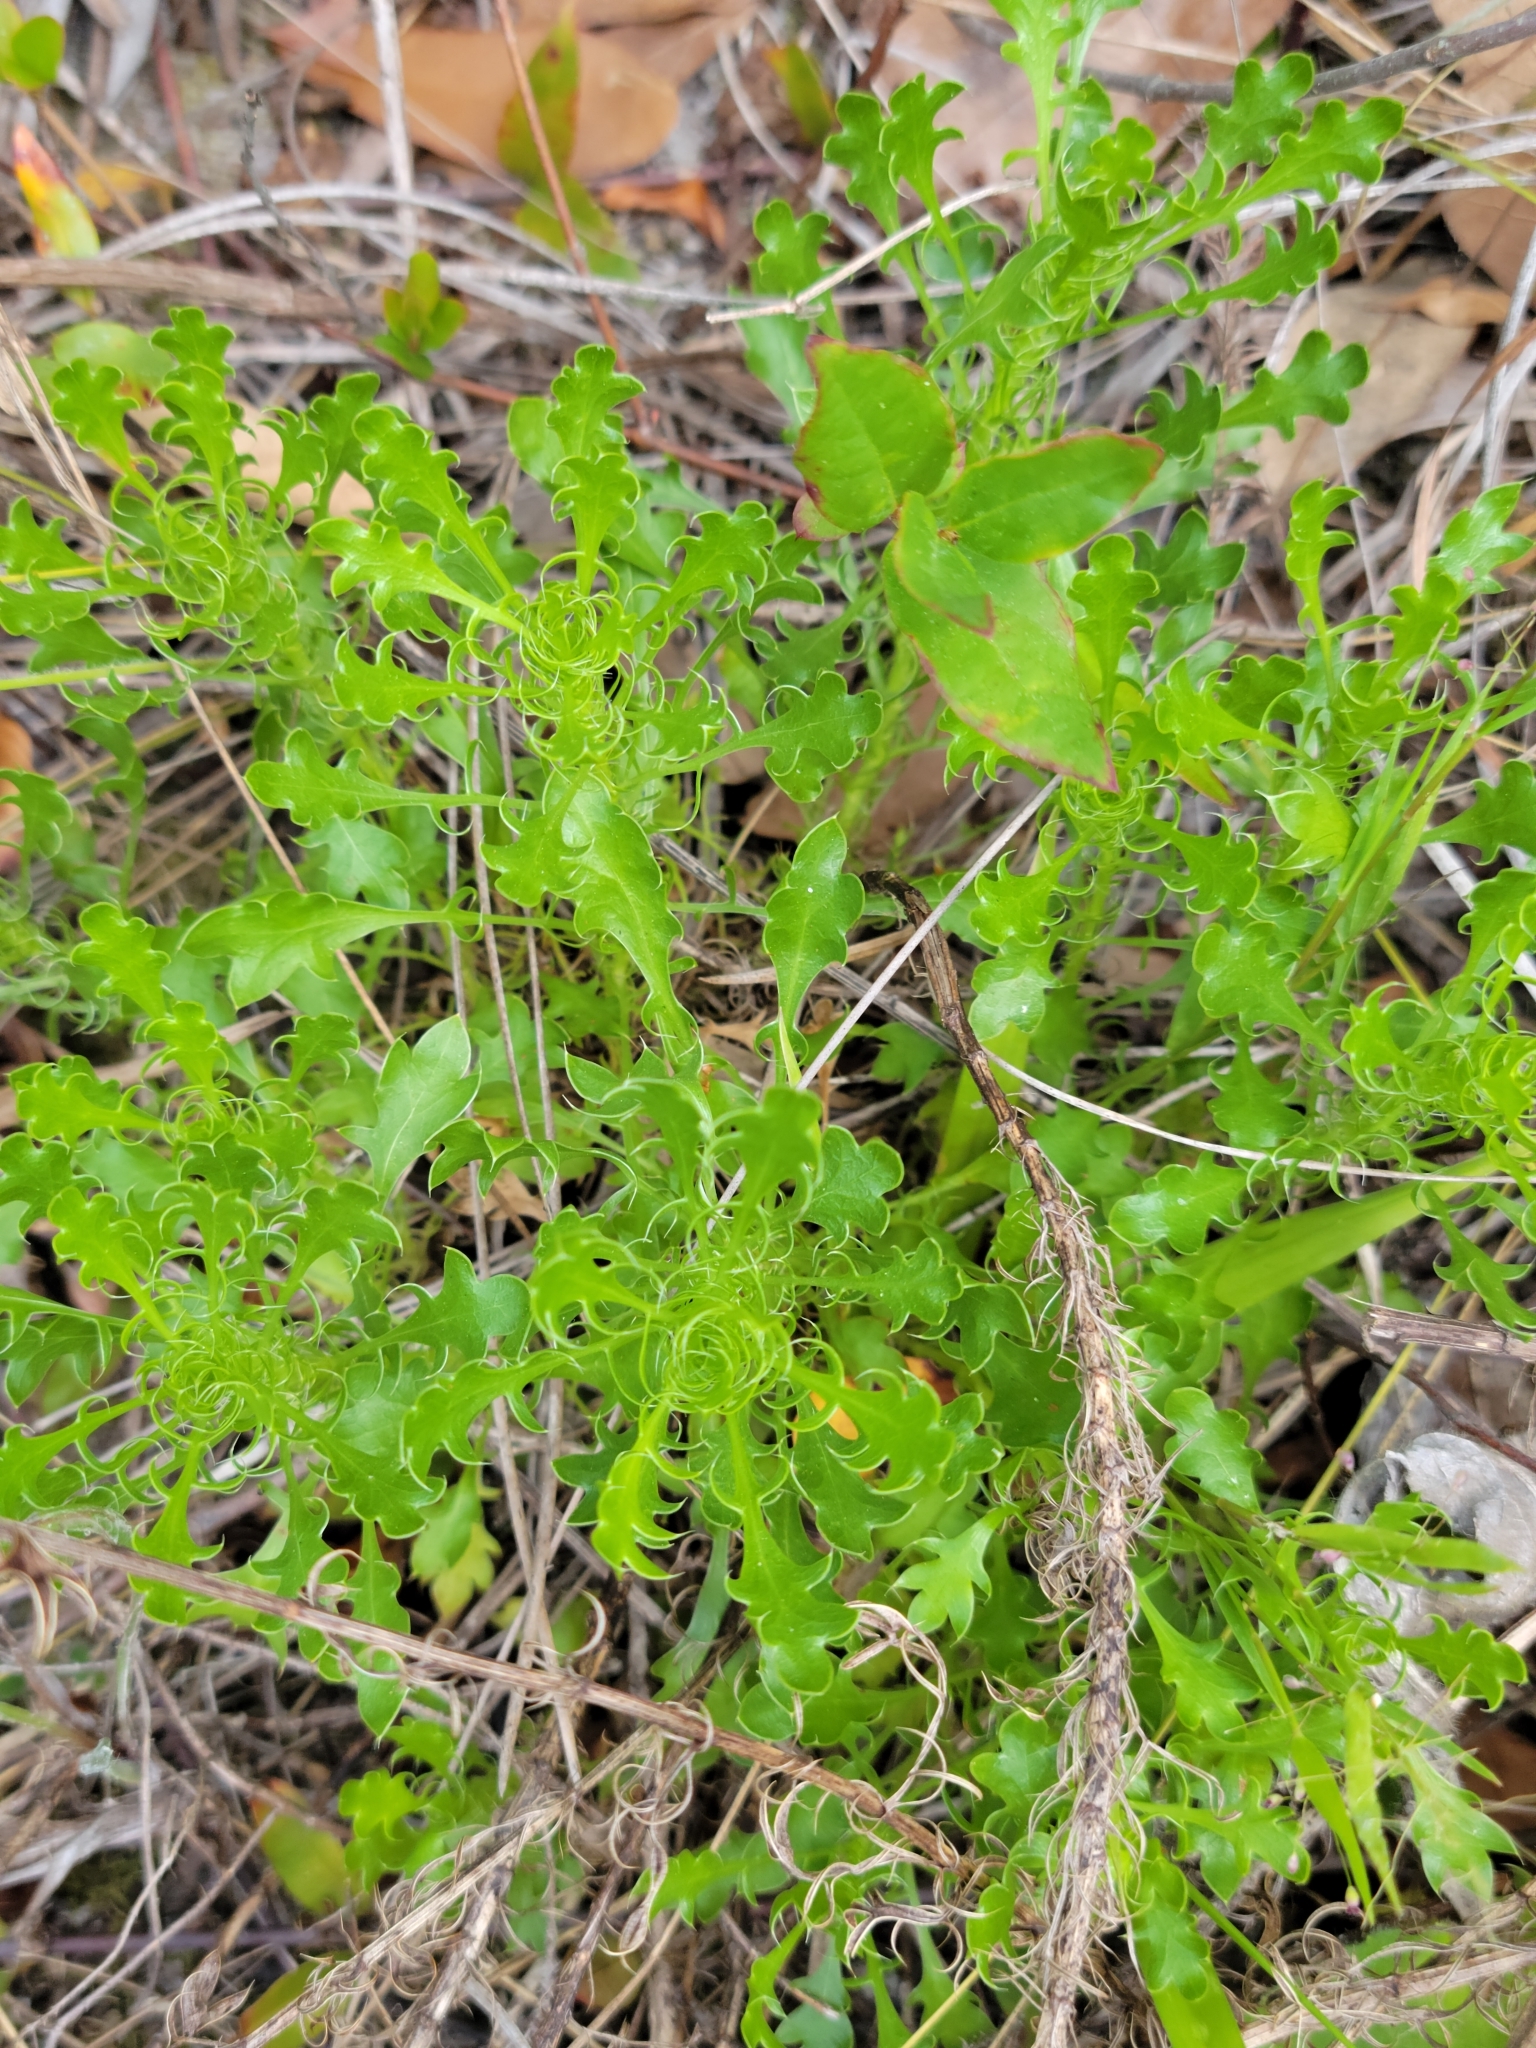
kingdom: Plantae
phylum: Tracheophyta
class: Magnoliopsida
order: Apiales
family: Apiaceae
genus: Eryngium
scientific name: Eryngium aromaticum
